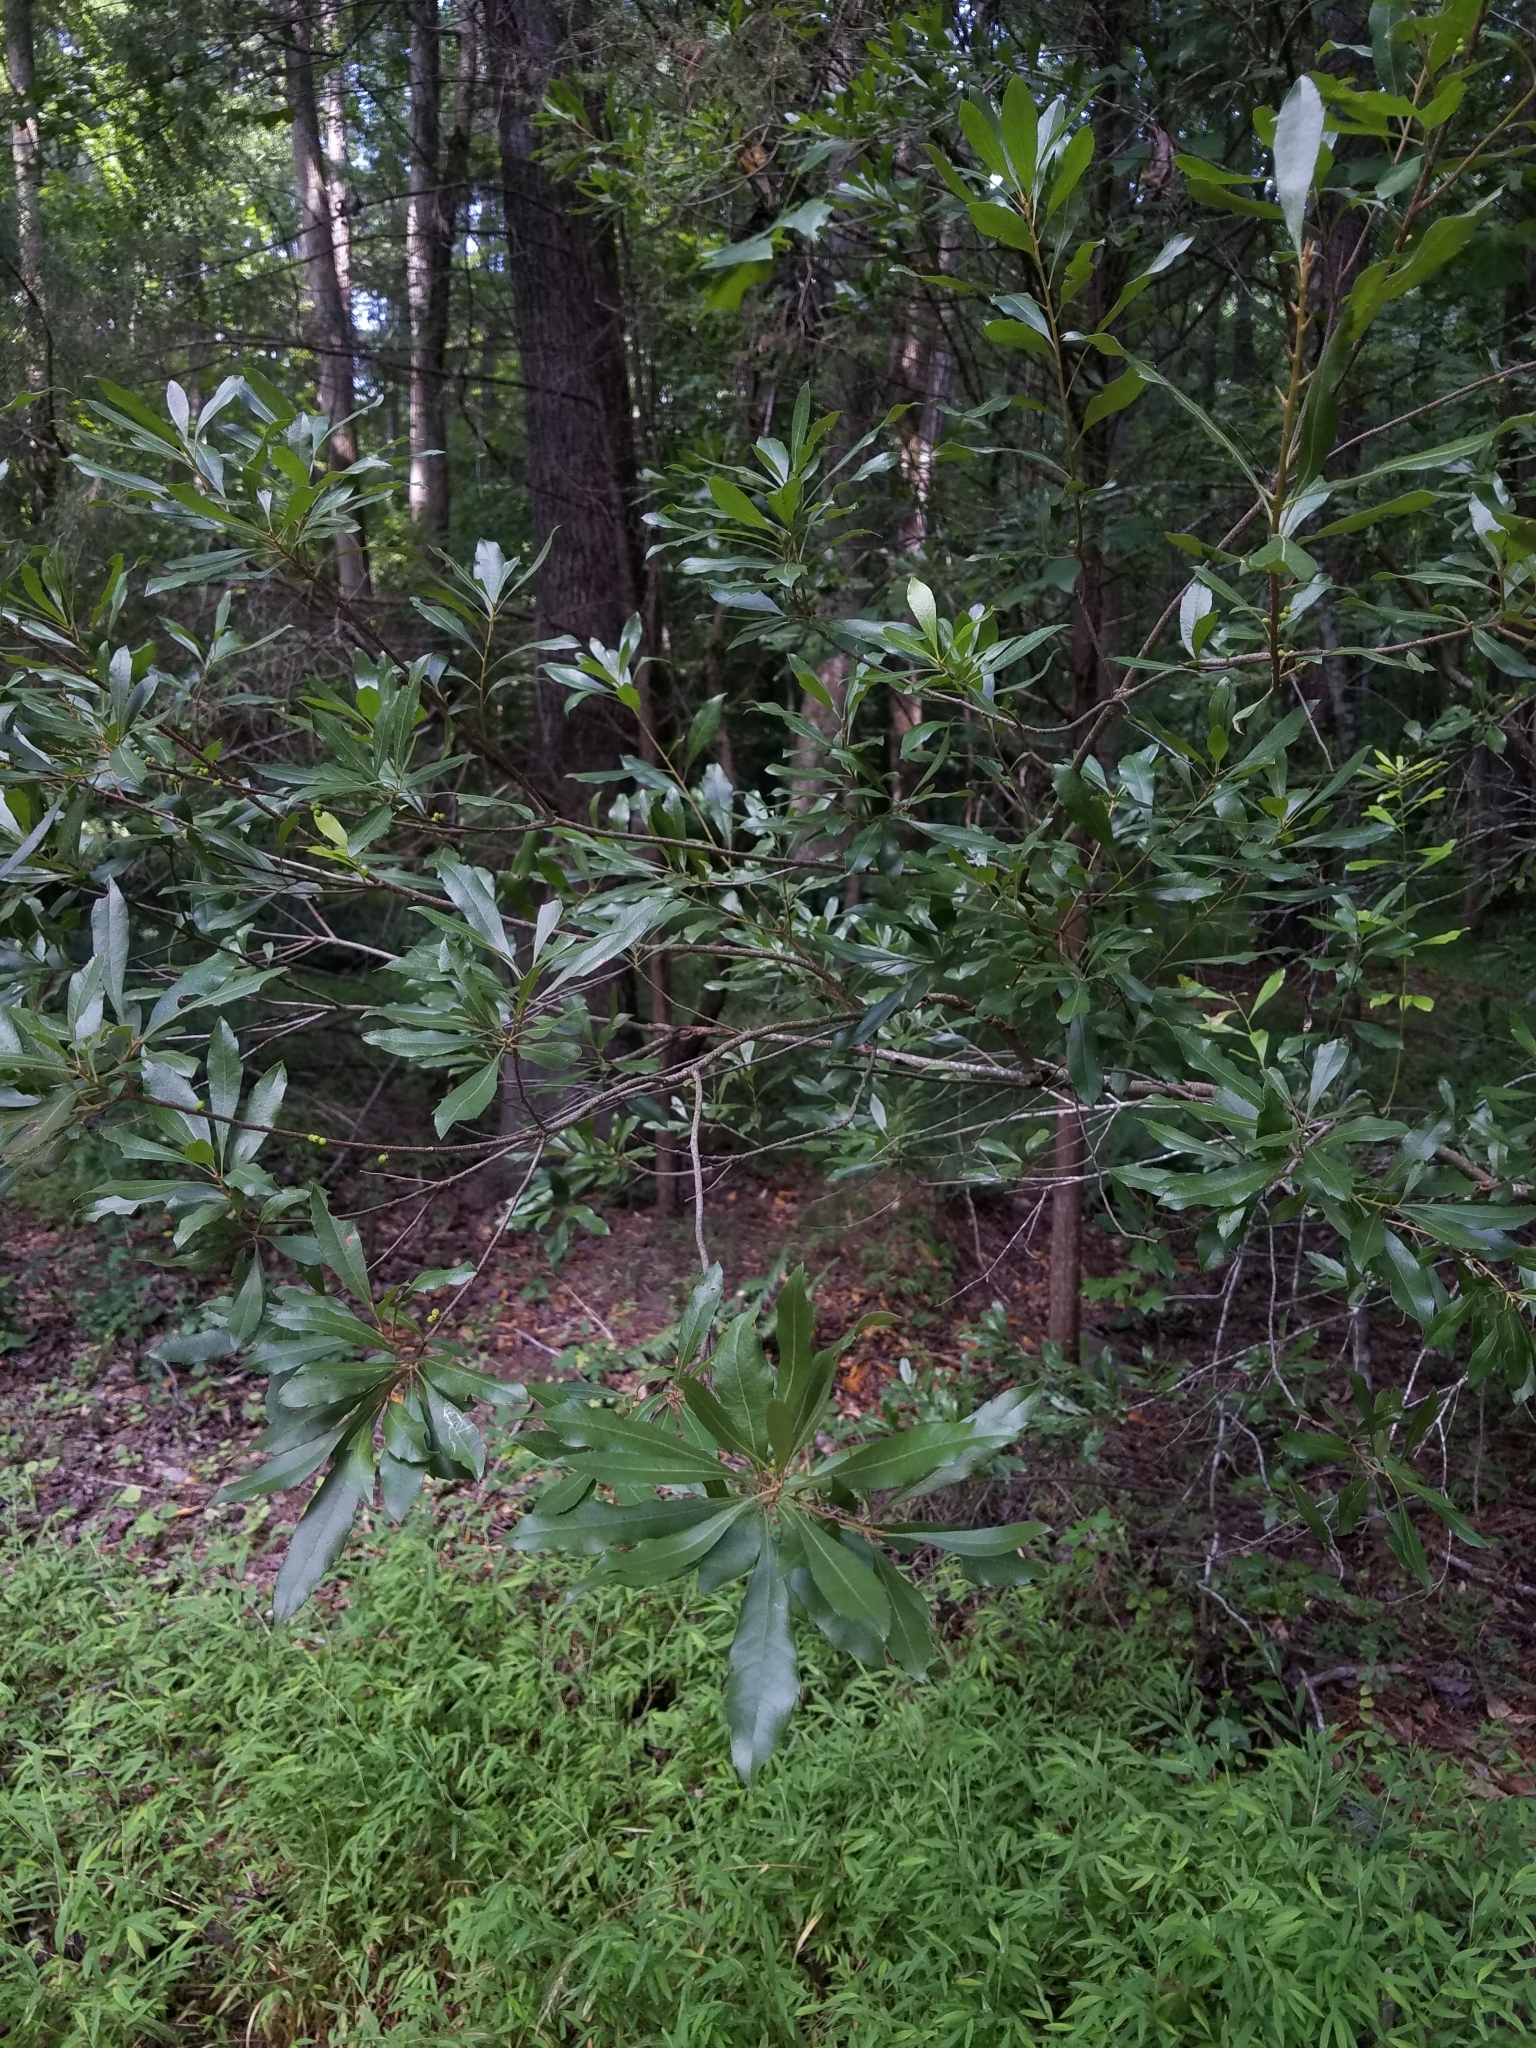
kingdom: Plantae
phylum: Tracheophyta
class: Magnoliopsida
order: Fagales
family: Myricaceae
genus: Morella
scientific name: Morella cerifera
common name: Wax myrtle
